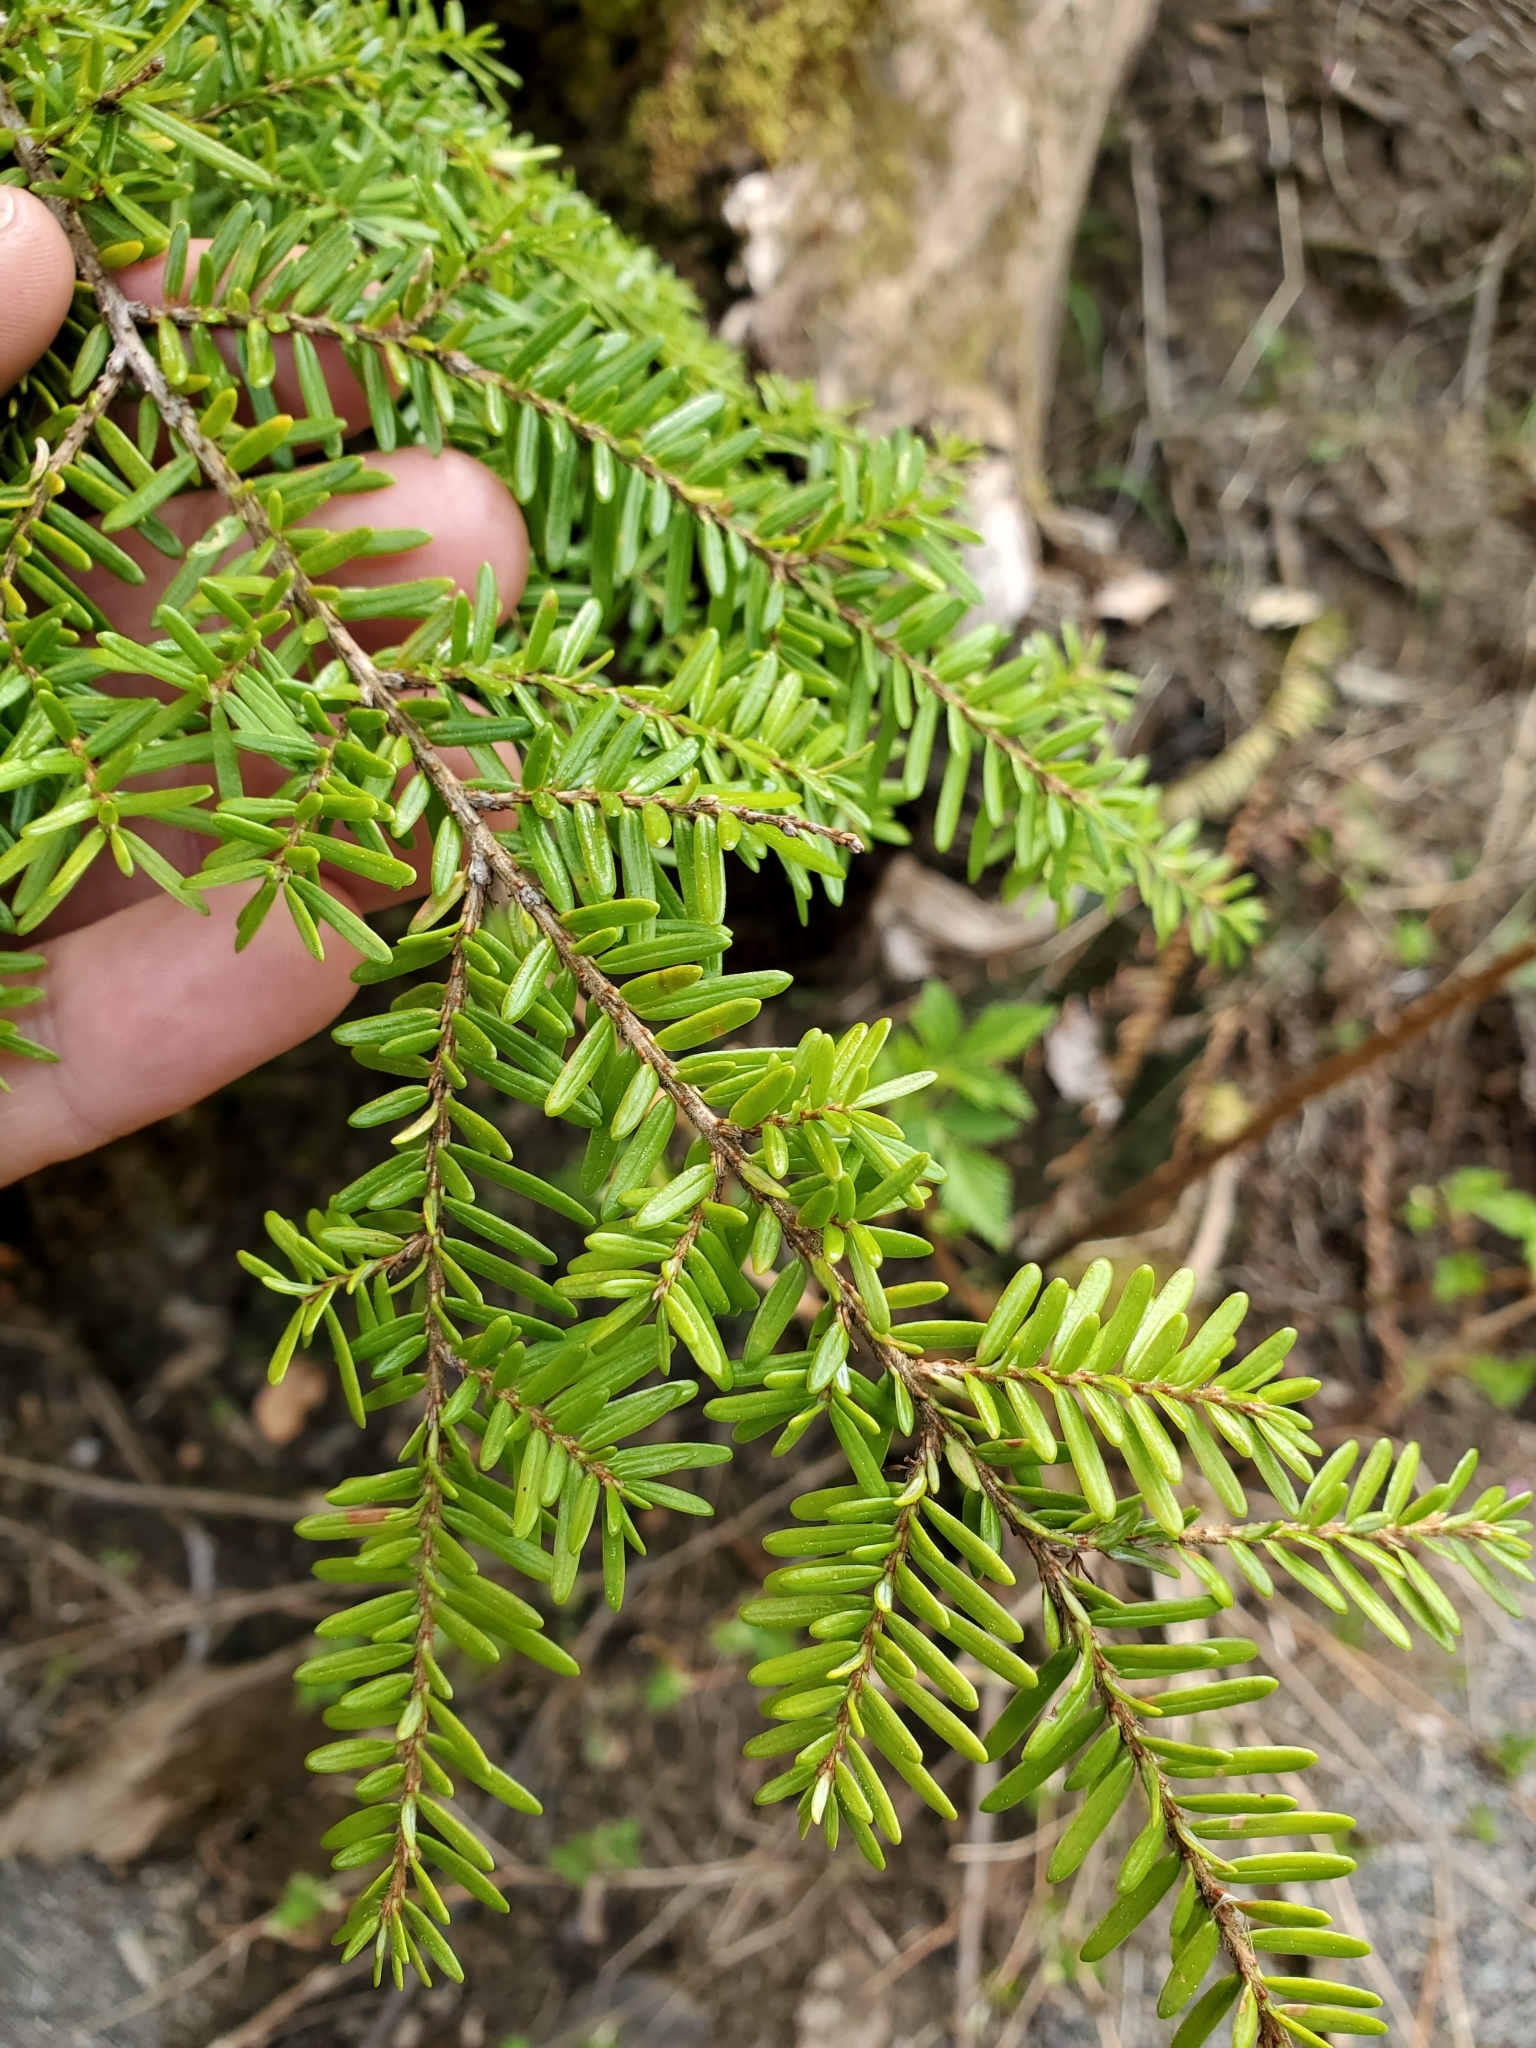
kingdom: Plantae
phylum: Tracheophyta
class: Pinopsida
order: Pinales
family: Pinaceae
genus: Tsuga
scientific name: Tsuga heterophylla
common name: Western hemlock
